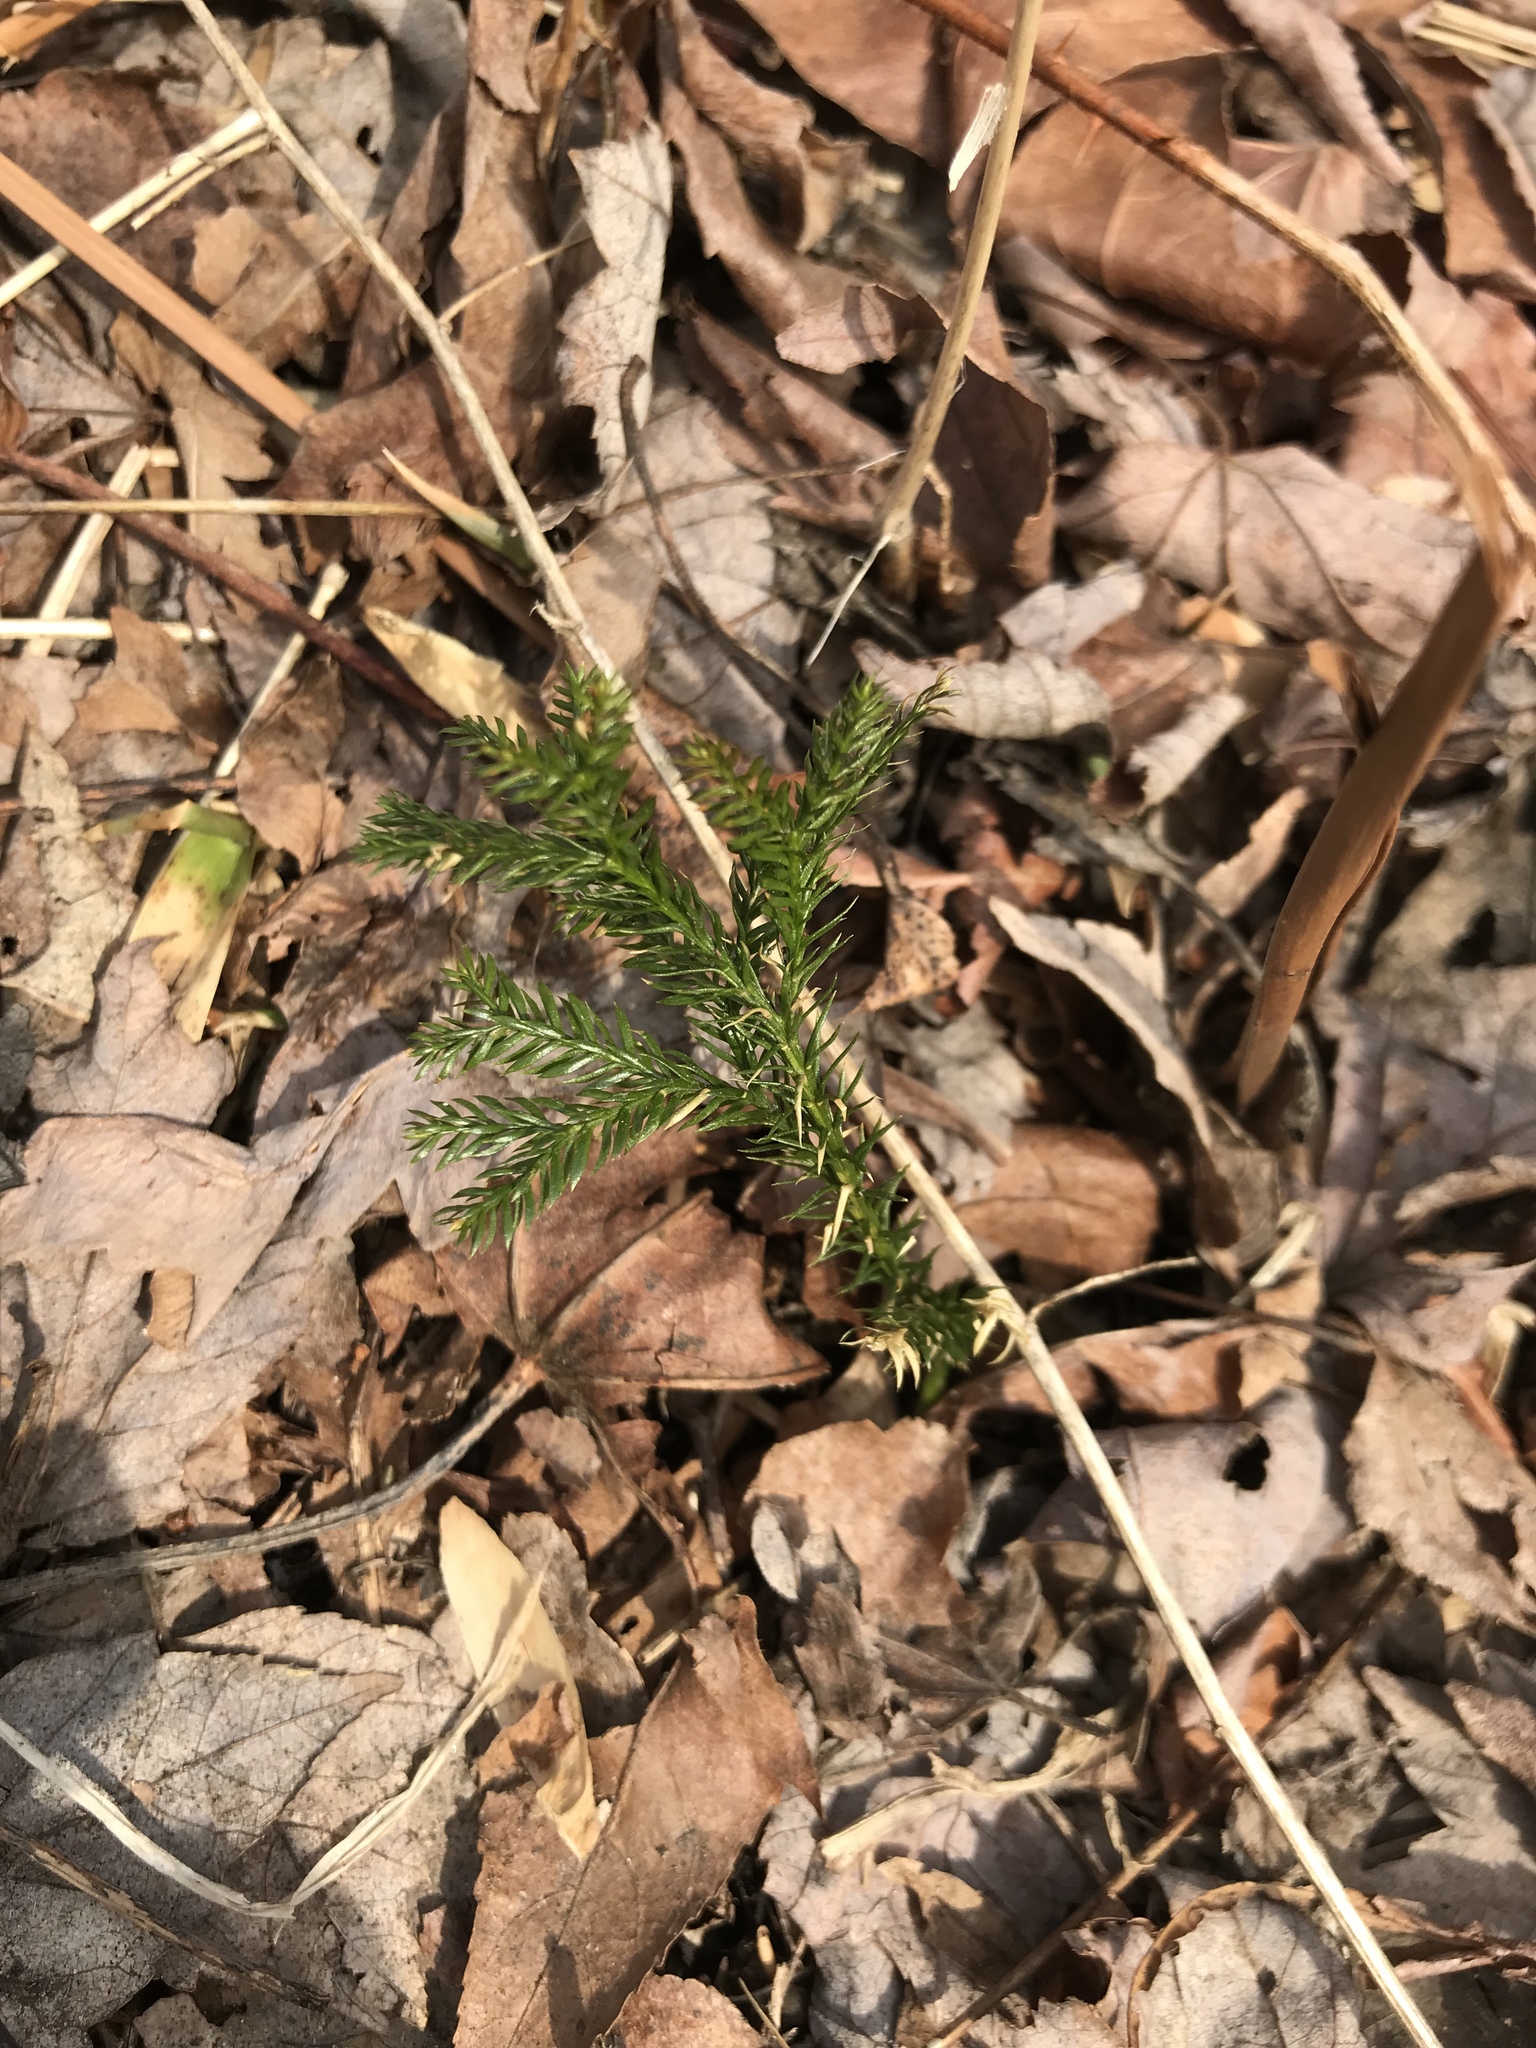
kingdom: Plantae
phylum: Tracheophyta
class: Lycopodiopsida
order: Lycopodiales
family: Lycopodiaceae
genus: Dendrolycopodium
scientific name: Dendrolycopodium dendroideum
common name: Northern tree-clubmoss
